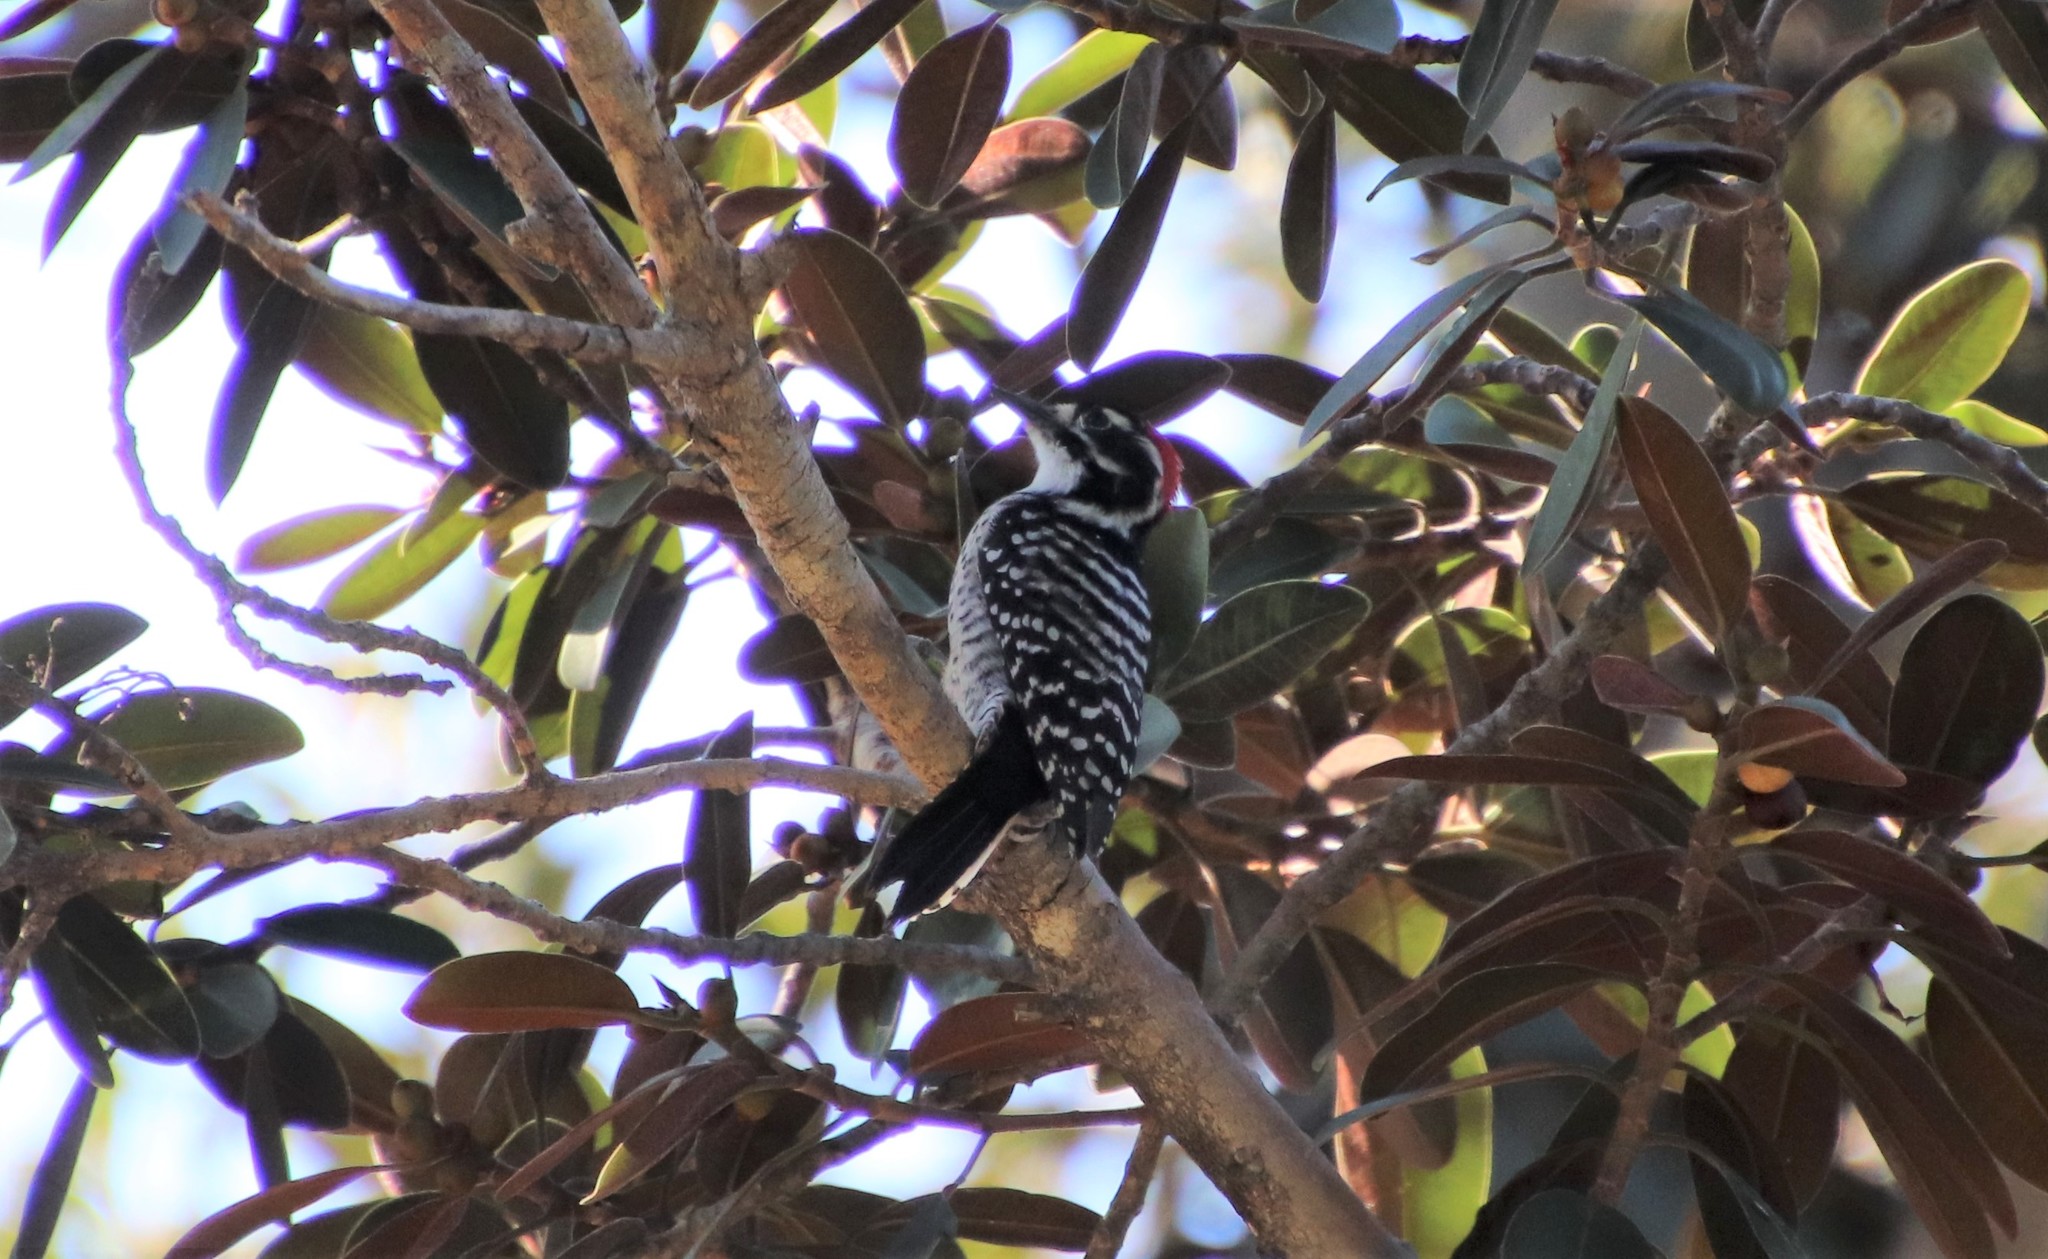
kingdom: Animalia
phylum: Chordata
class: Aves
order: Piciformes
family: Picidae
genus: Dryobates
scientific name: Dryobates nuttallii
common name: Nuttall's woodpecker
